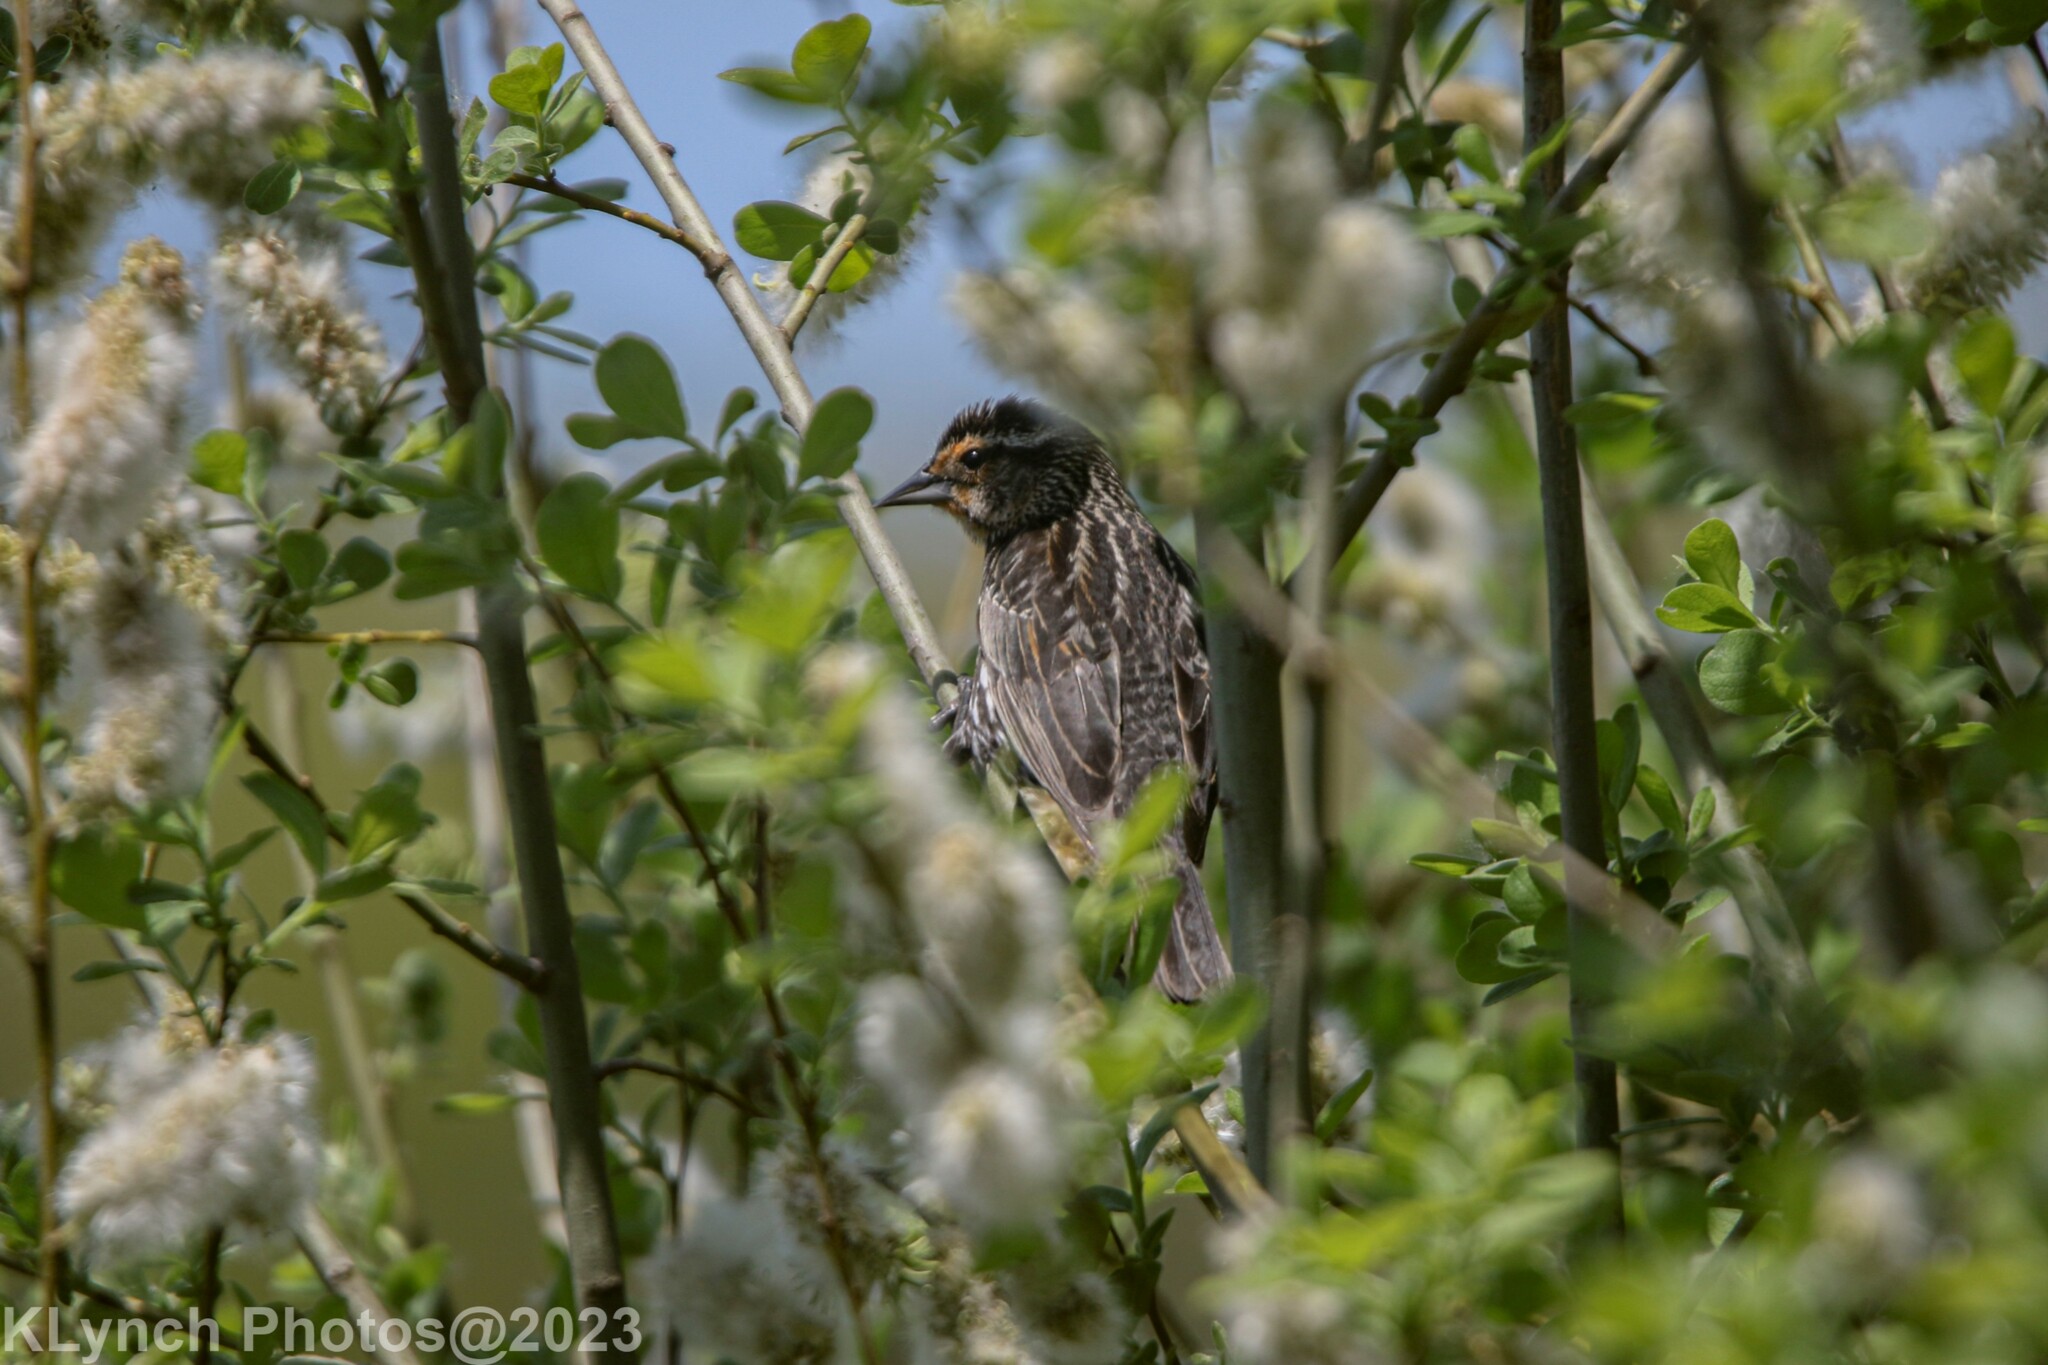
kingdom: Animalia
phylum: Chordata
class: Aves
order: Passeriformes
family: Icteridae
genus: Agelaius
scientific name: Agelaius phoeniceus
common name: Red-winged blackbird
